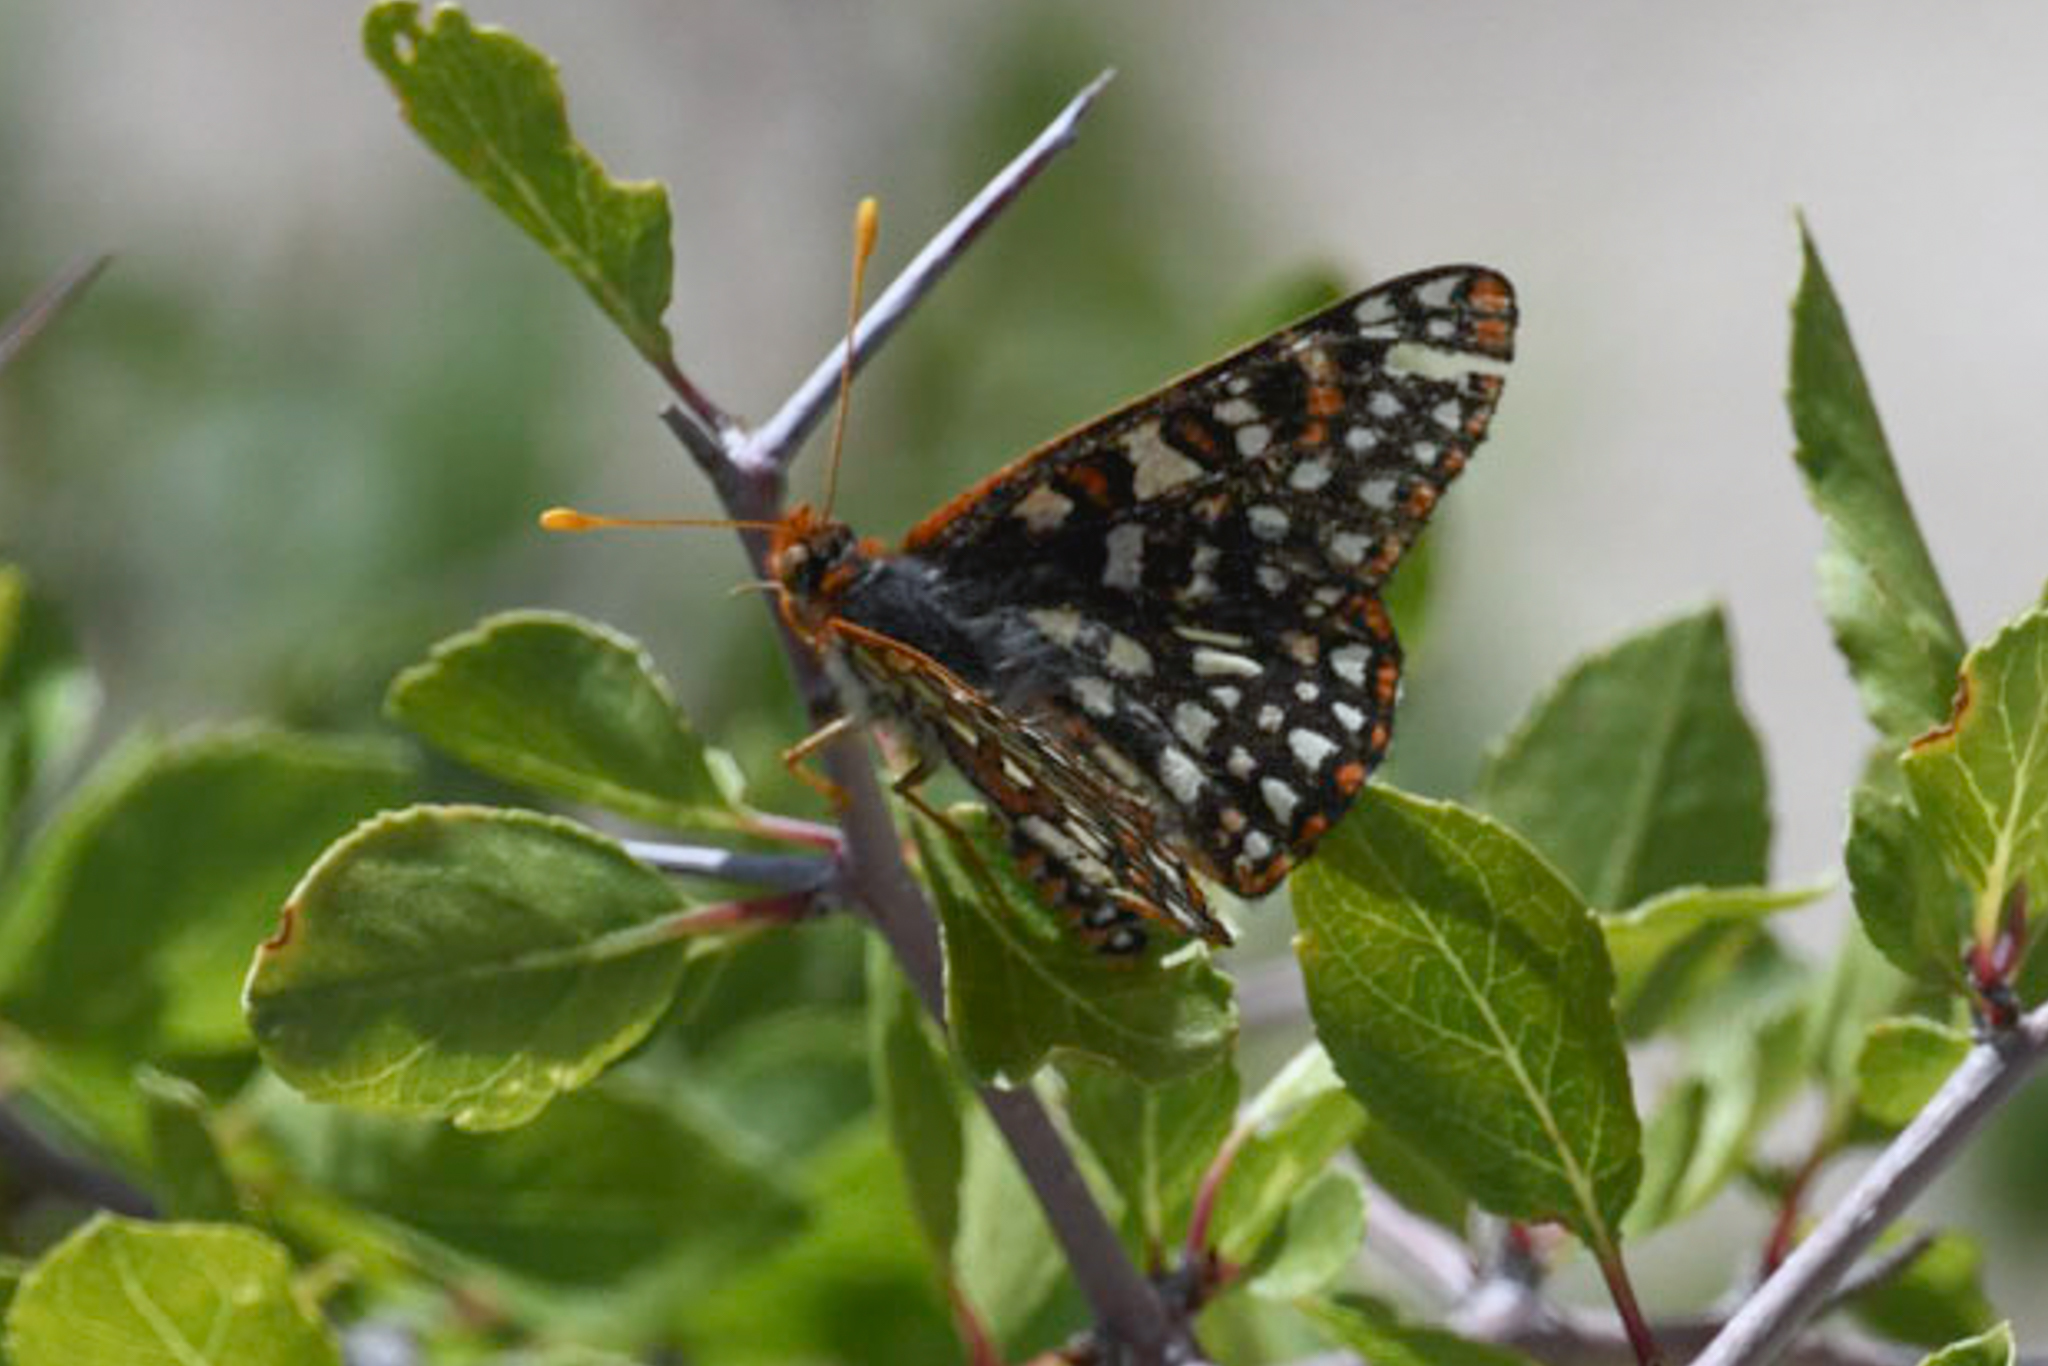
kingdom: Animalia
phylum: Arthropoda
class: Insecta
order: Lepidoptera
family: Nymphalidae
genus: Occidryas
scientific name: Occidryas chalcedona
